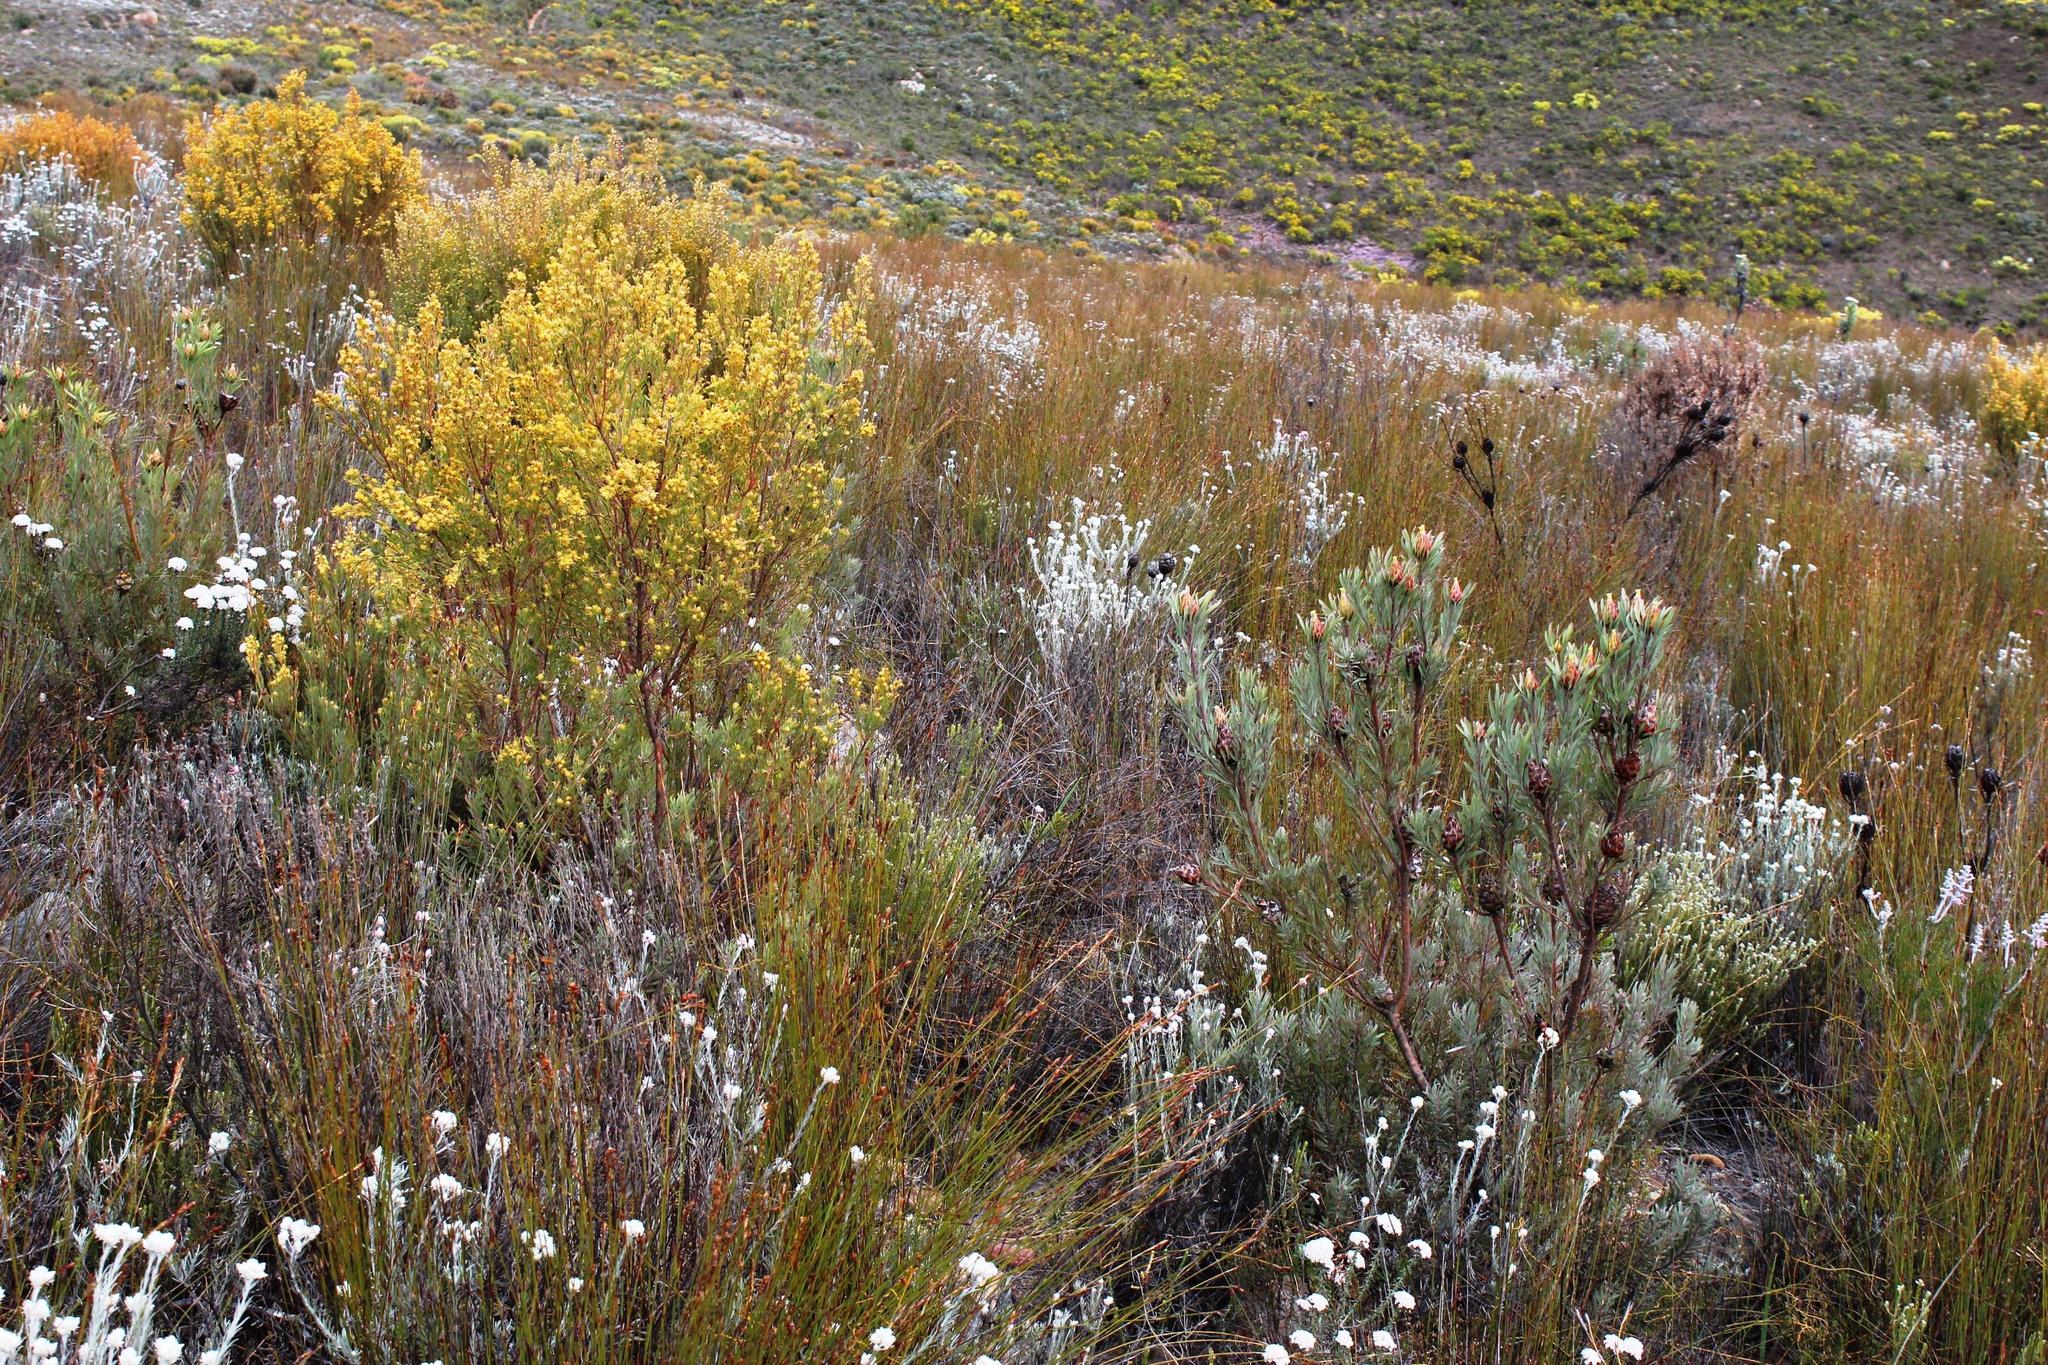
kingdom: Plantae
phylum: Tracheophyta
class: Magnoliopsida
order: Proteales
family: Proteaceae
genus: Leucadendron
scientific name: Leucadendron rubrum
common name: Spinning top
